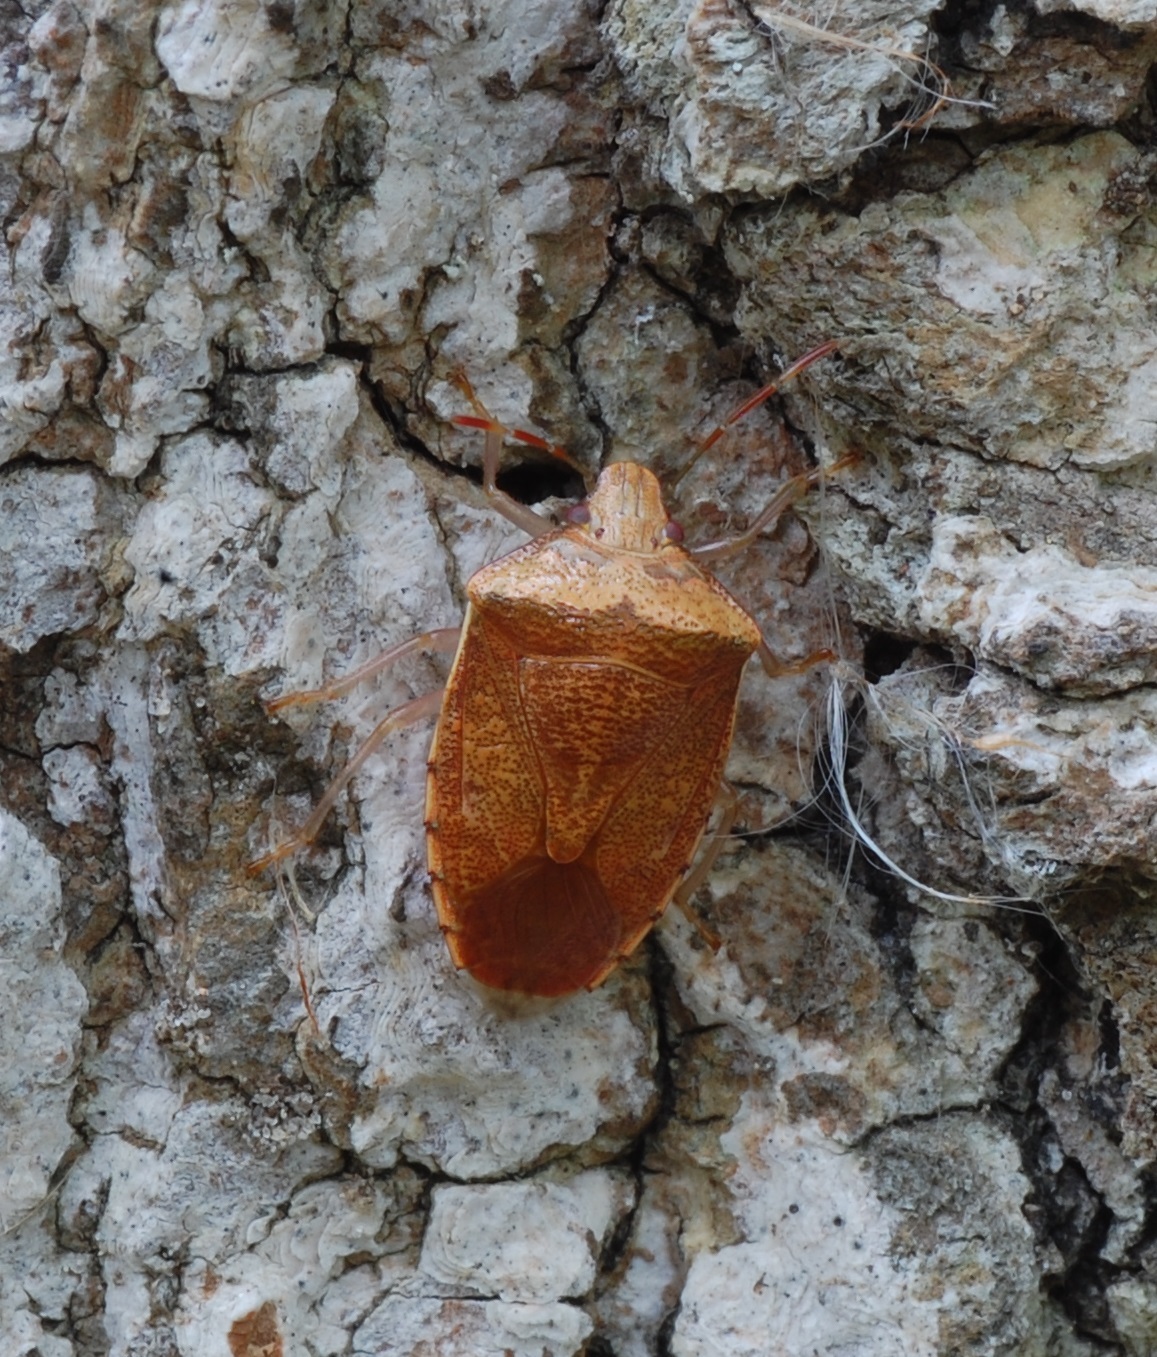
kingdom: Animalia
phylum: Arthropoda
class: Insecta
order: Hemiptera
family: Pentatomidae
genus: Banasa
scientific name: Banasa calva
